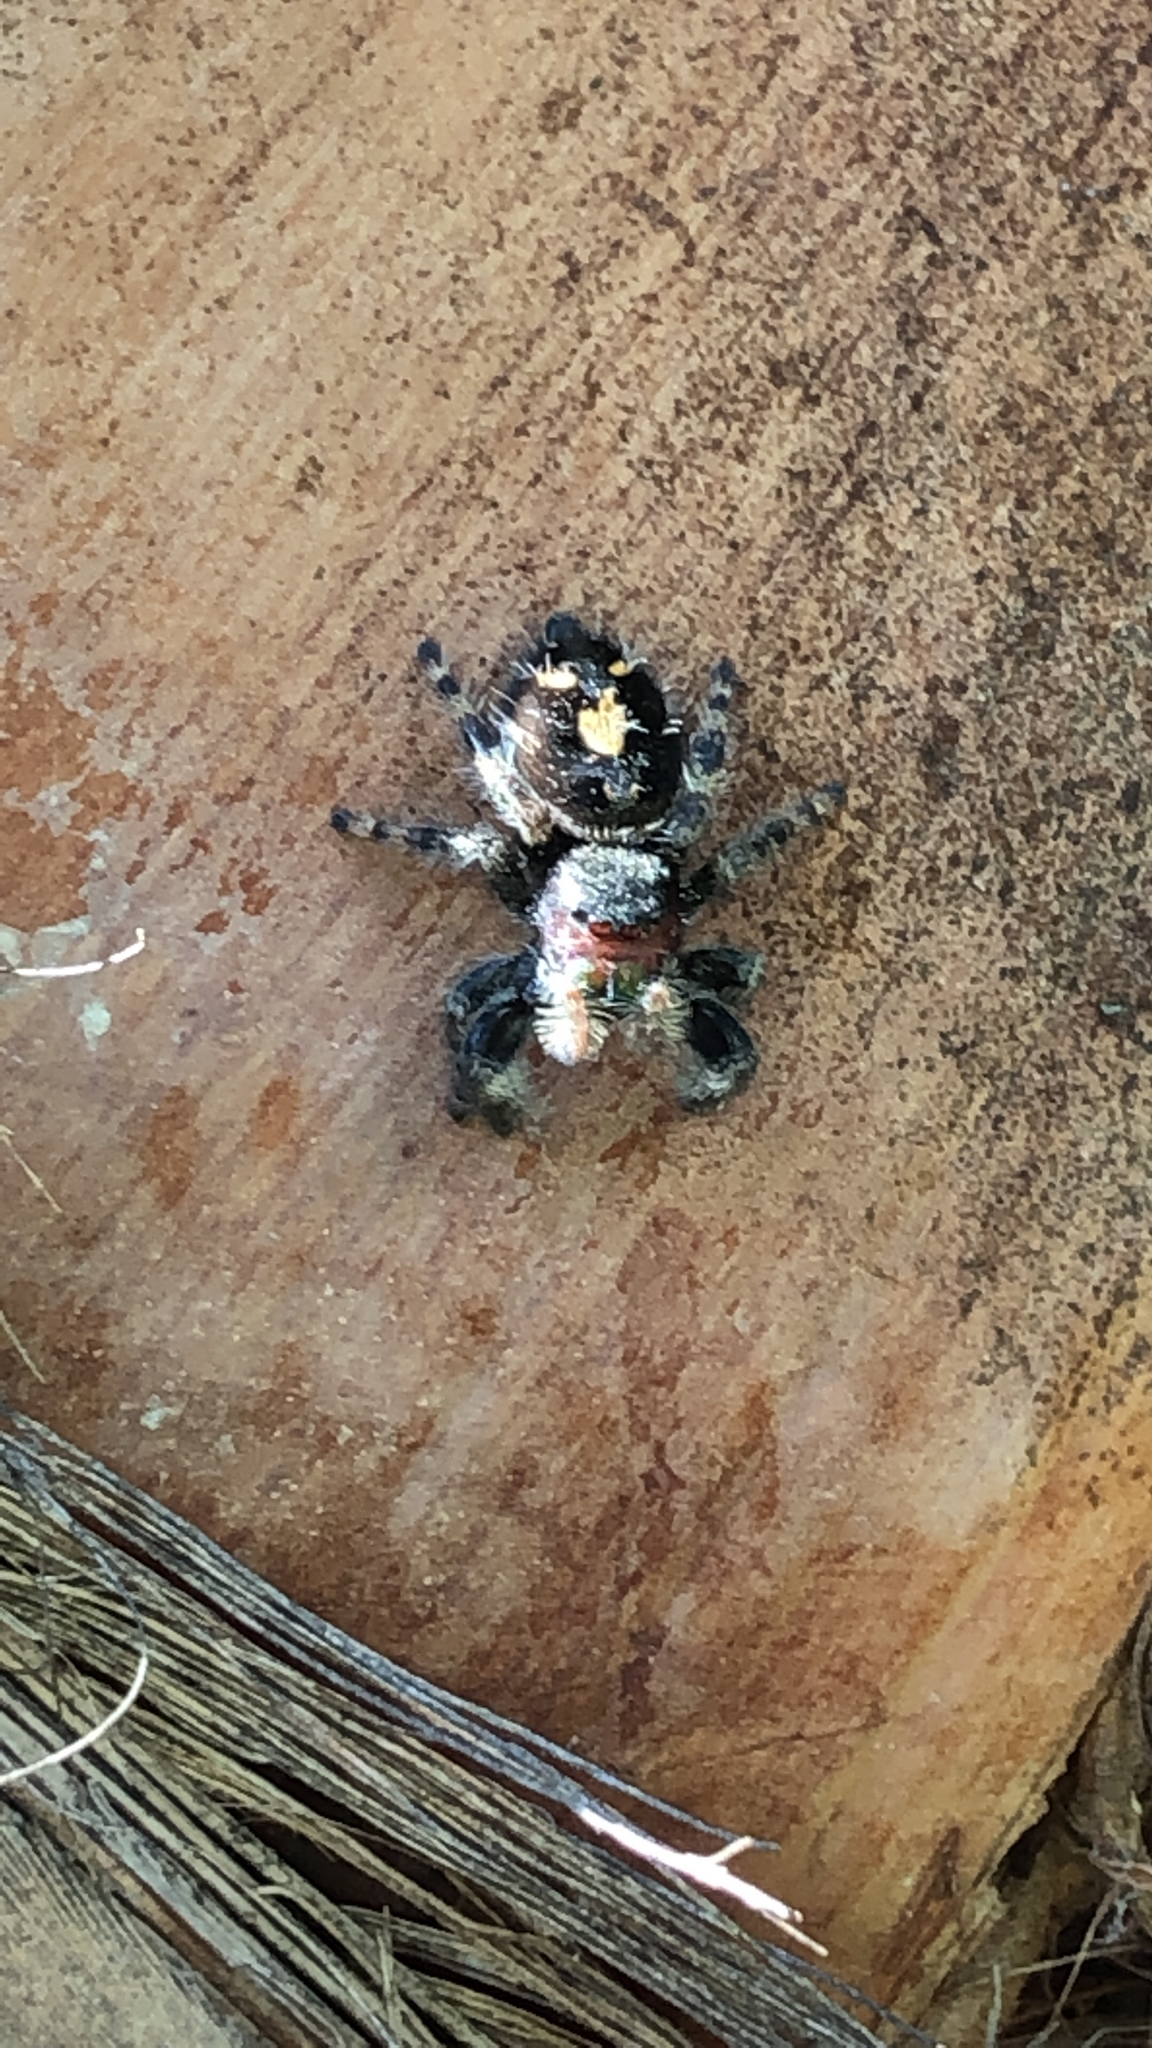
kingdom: Animalia
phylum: Arthropoda
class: Arachnida
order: Araneae
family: Salticidae
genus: Phidippus
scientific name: Phidippus audax
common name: Bold jumper
